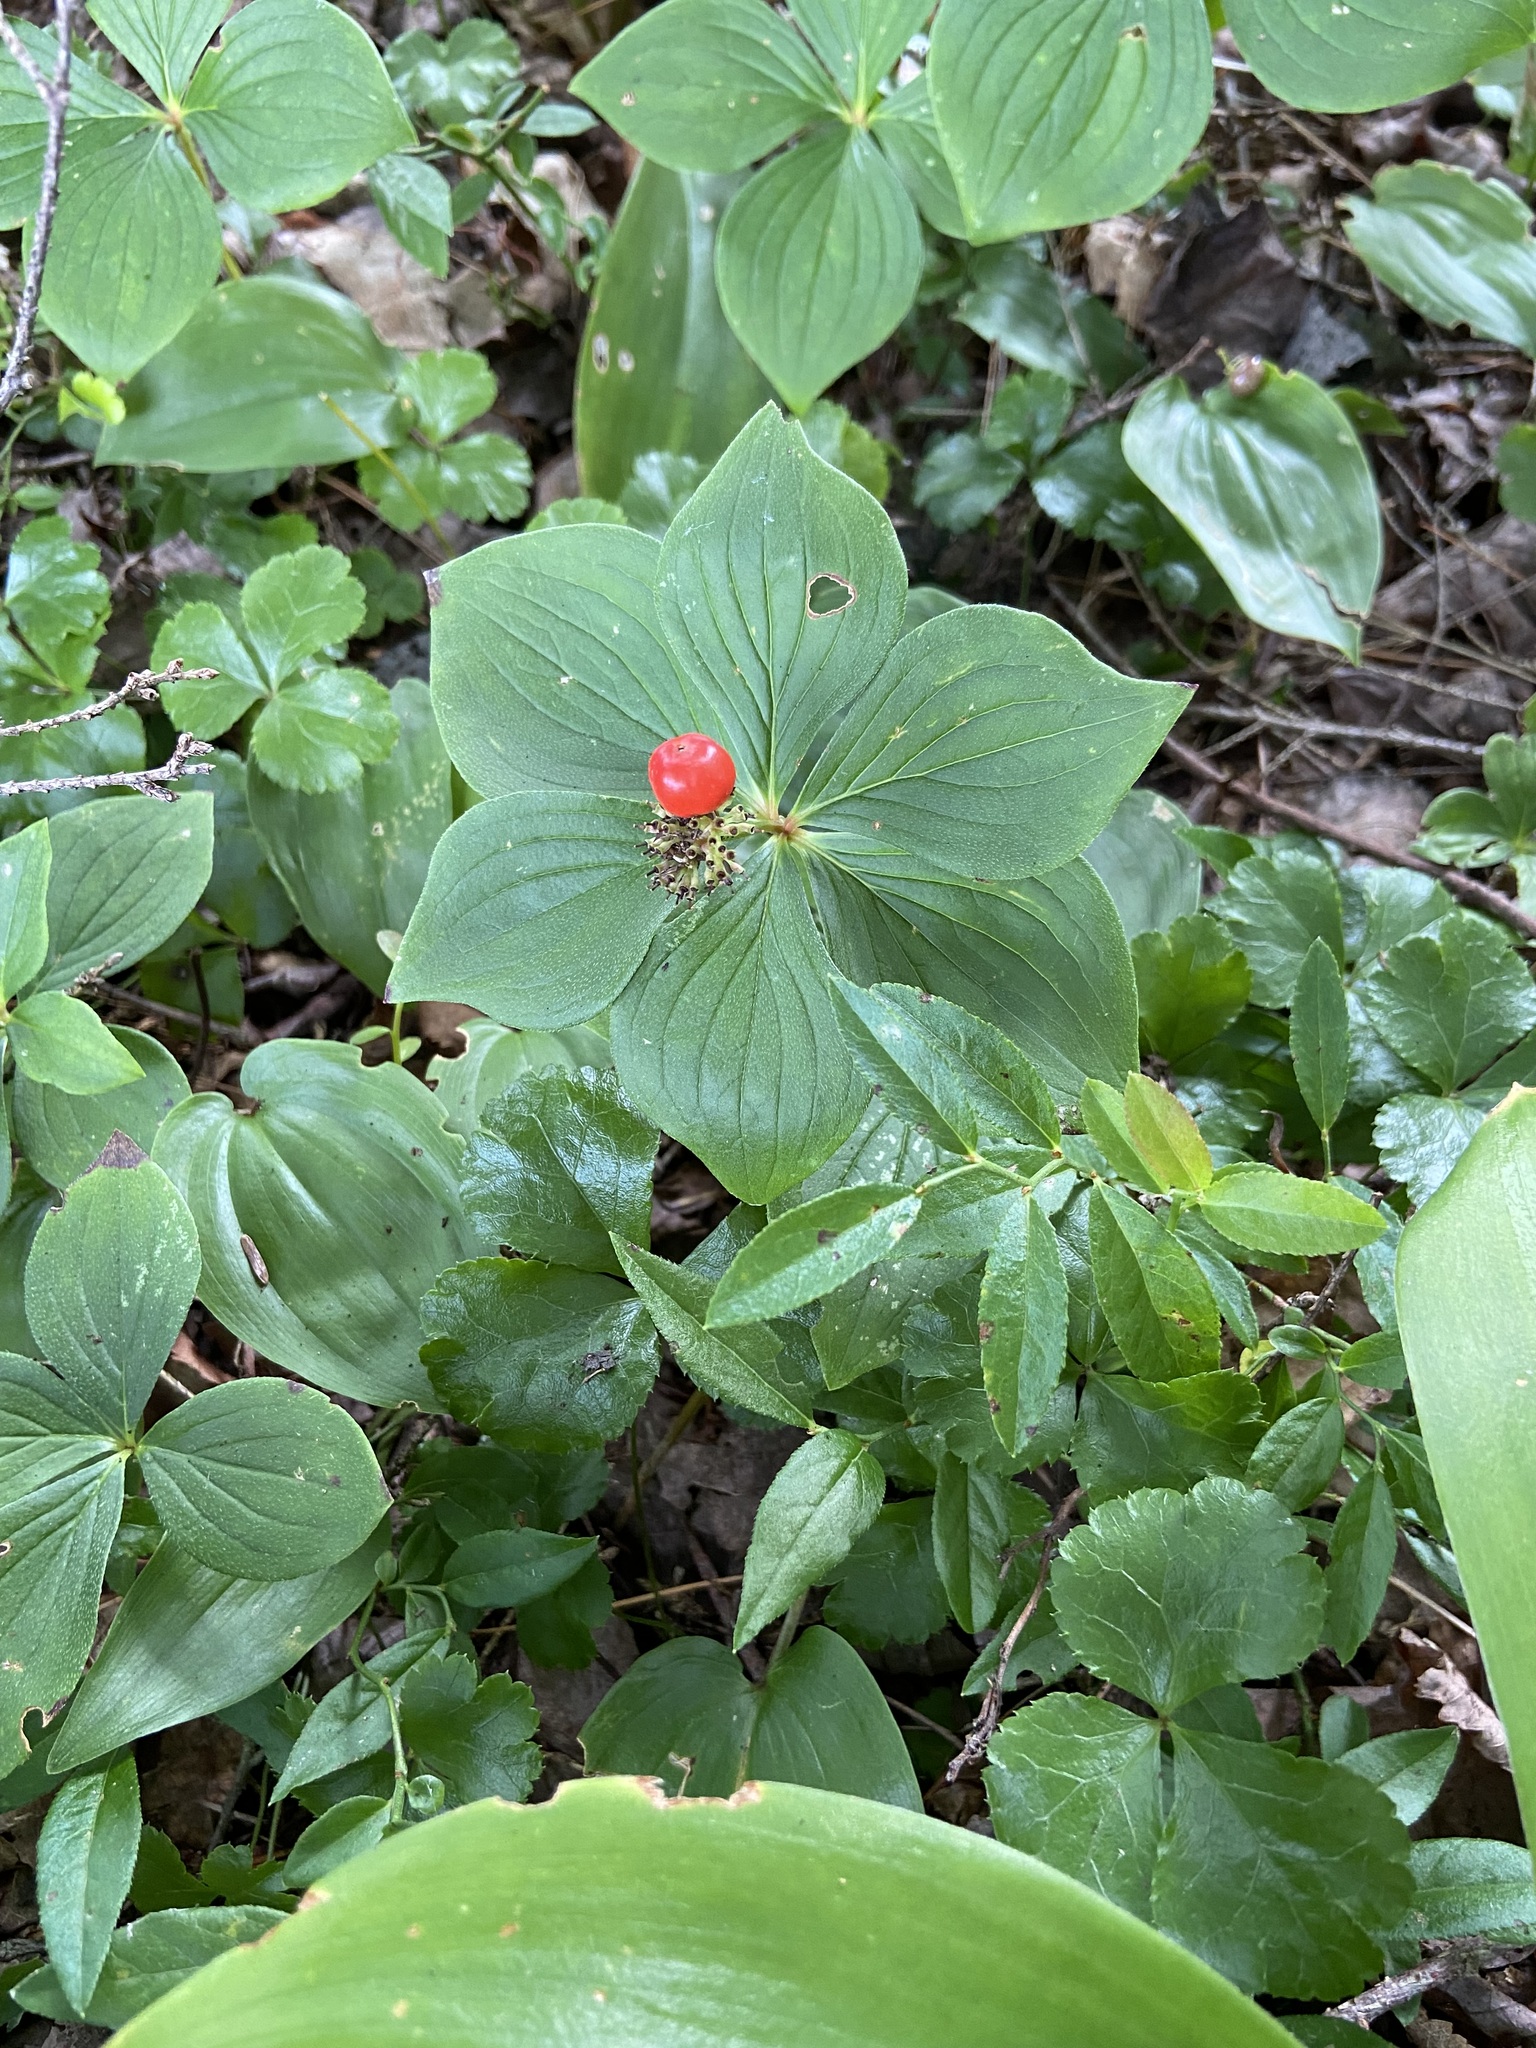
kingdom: Plantae
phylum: Tracheophyta
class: Magnoliopsida
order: Cornales
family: Cornaceae
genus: Cornus
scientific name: Cornus canadensis
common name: Creeping dogwood
